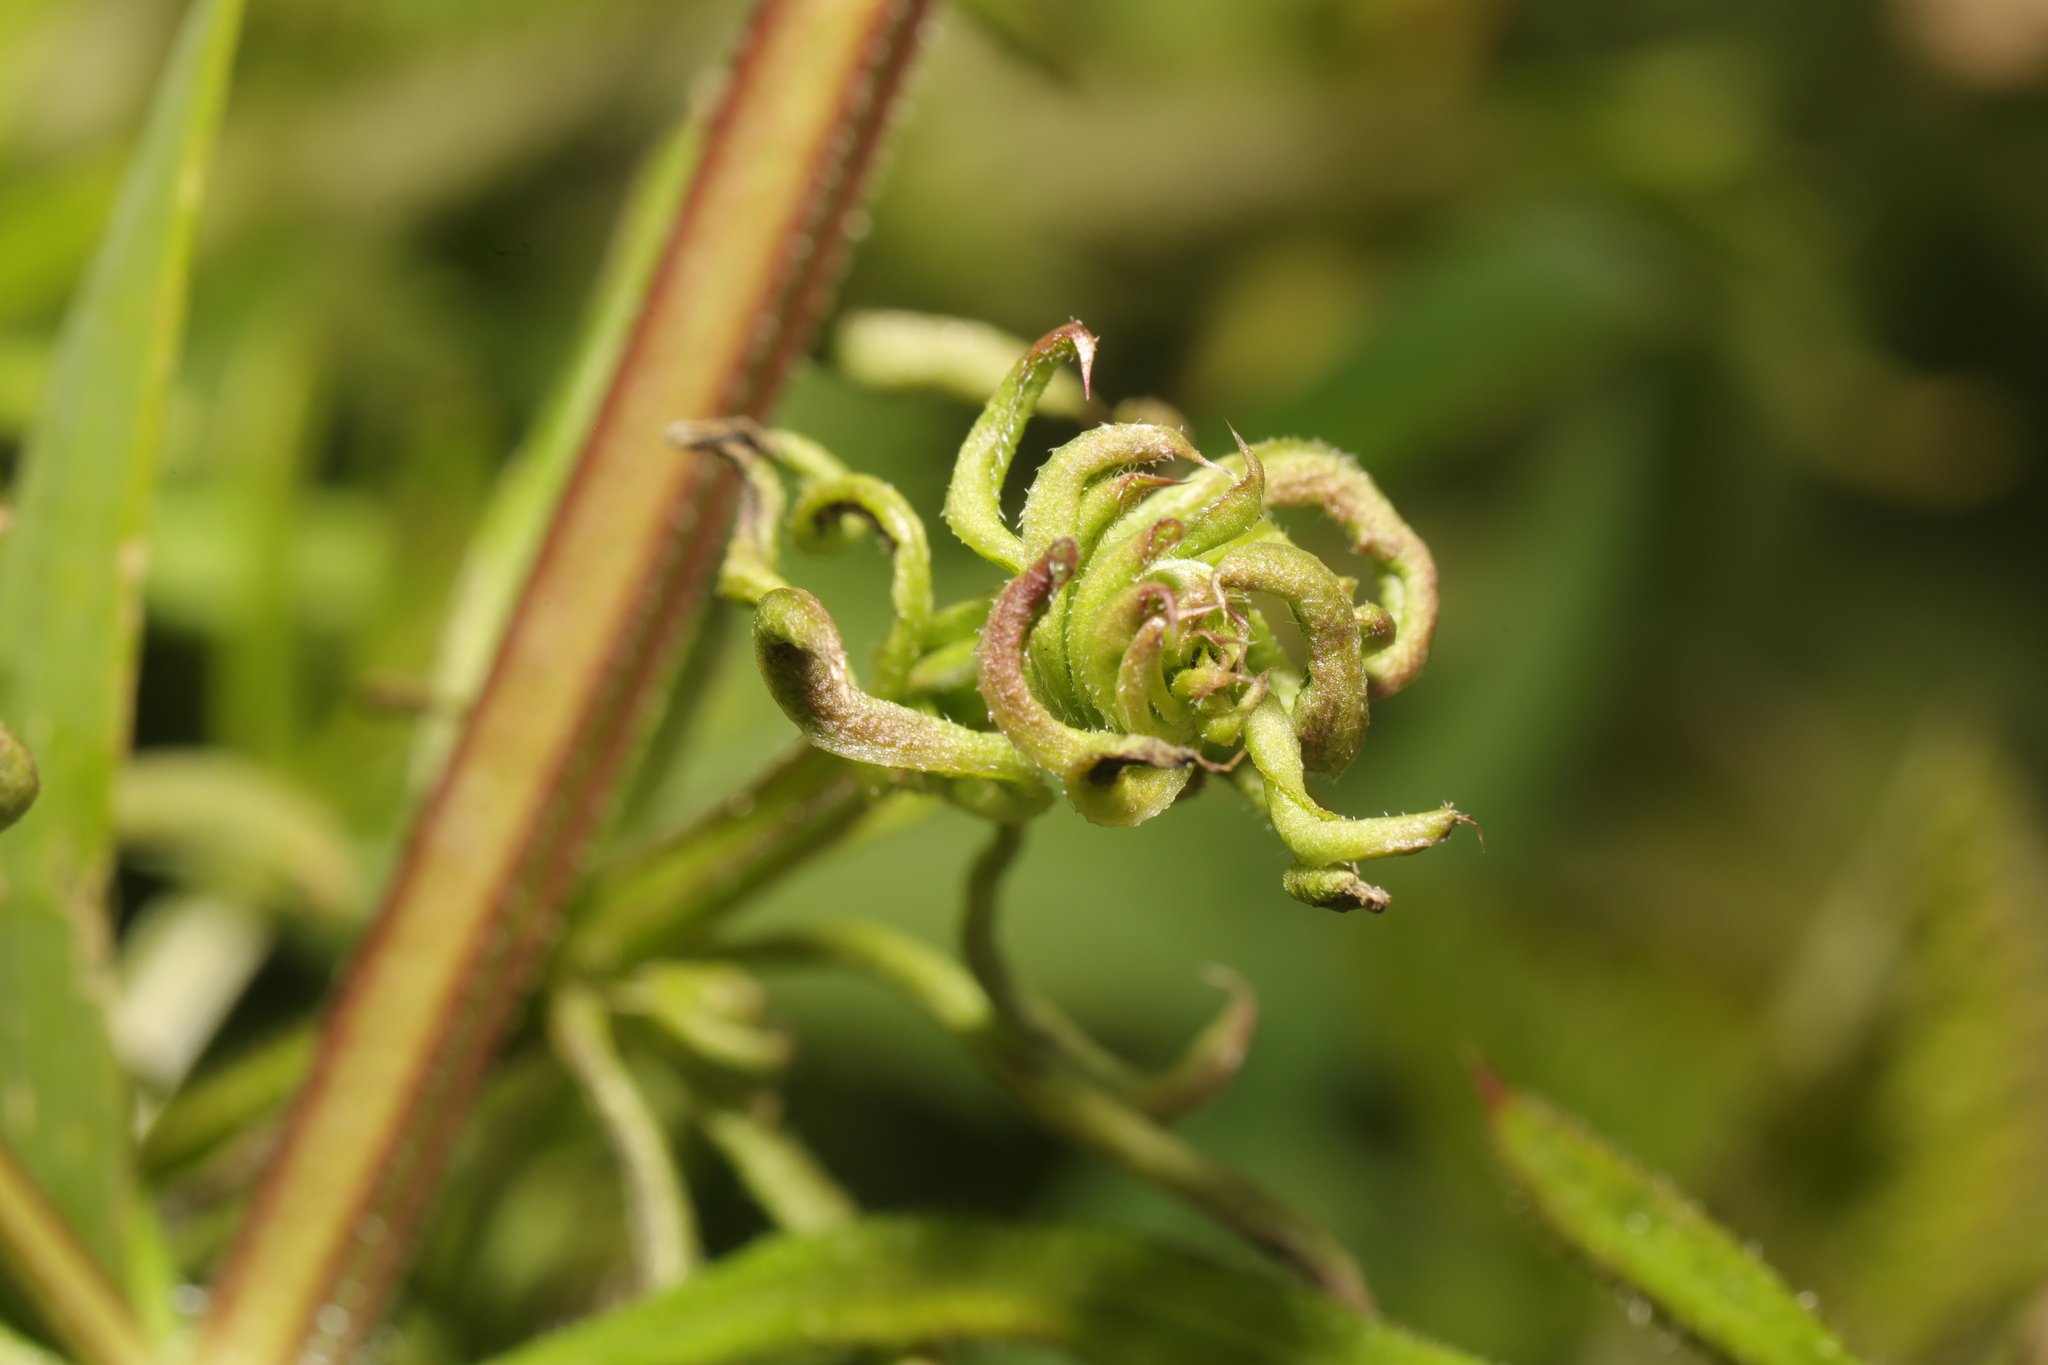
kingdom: Animalia
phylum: Arthropoda
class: Arachnida
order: Trombidiformes
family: Eriophyidae
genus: Cecidophyes
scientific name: Cecidophyes rouhollahi
